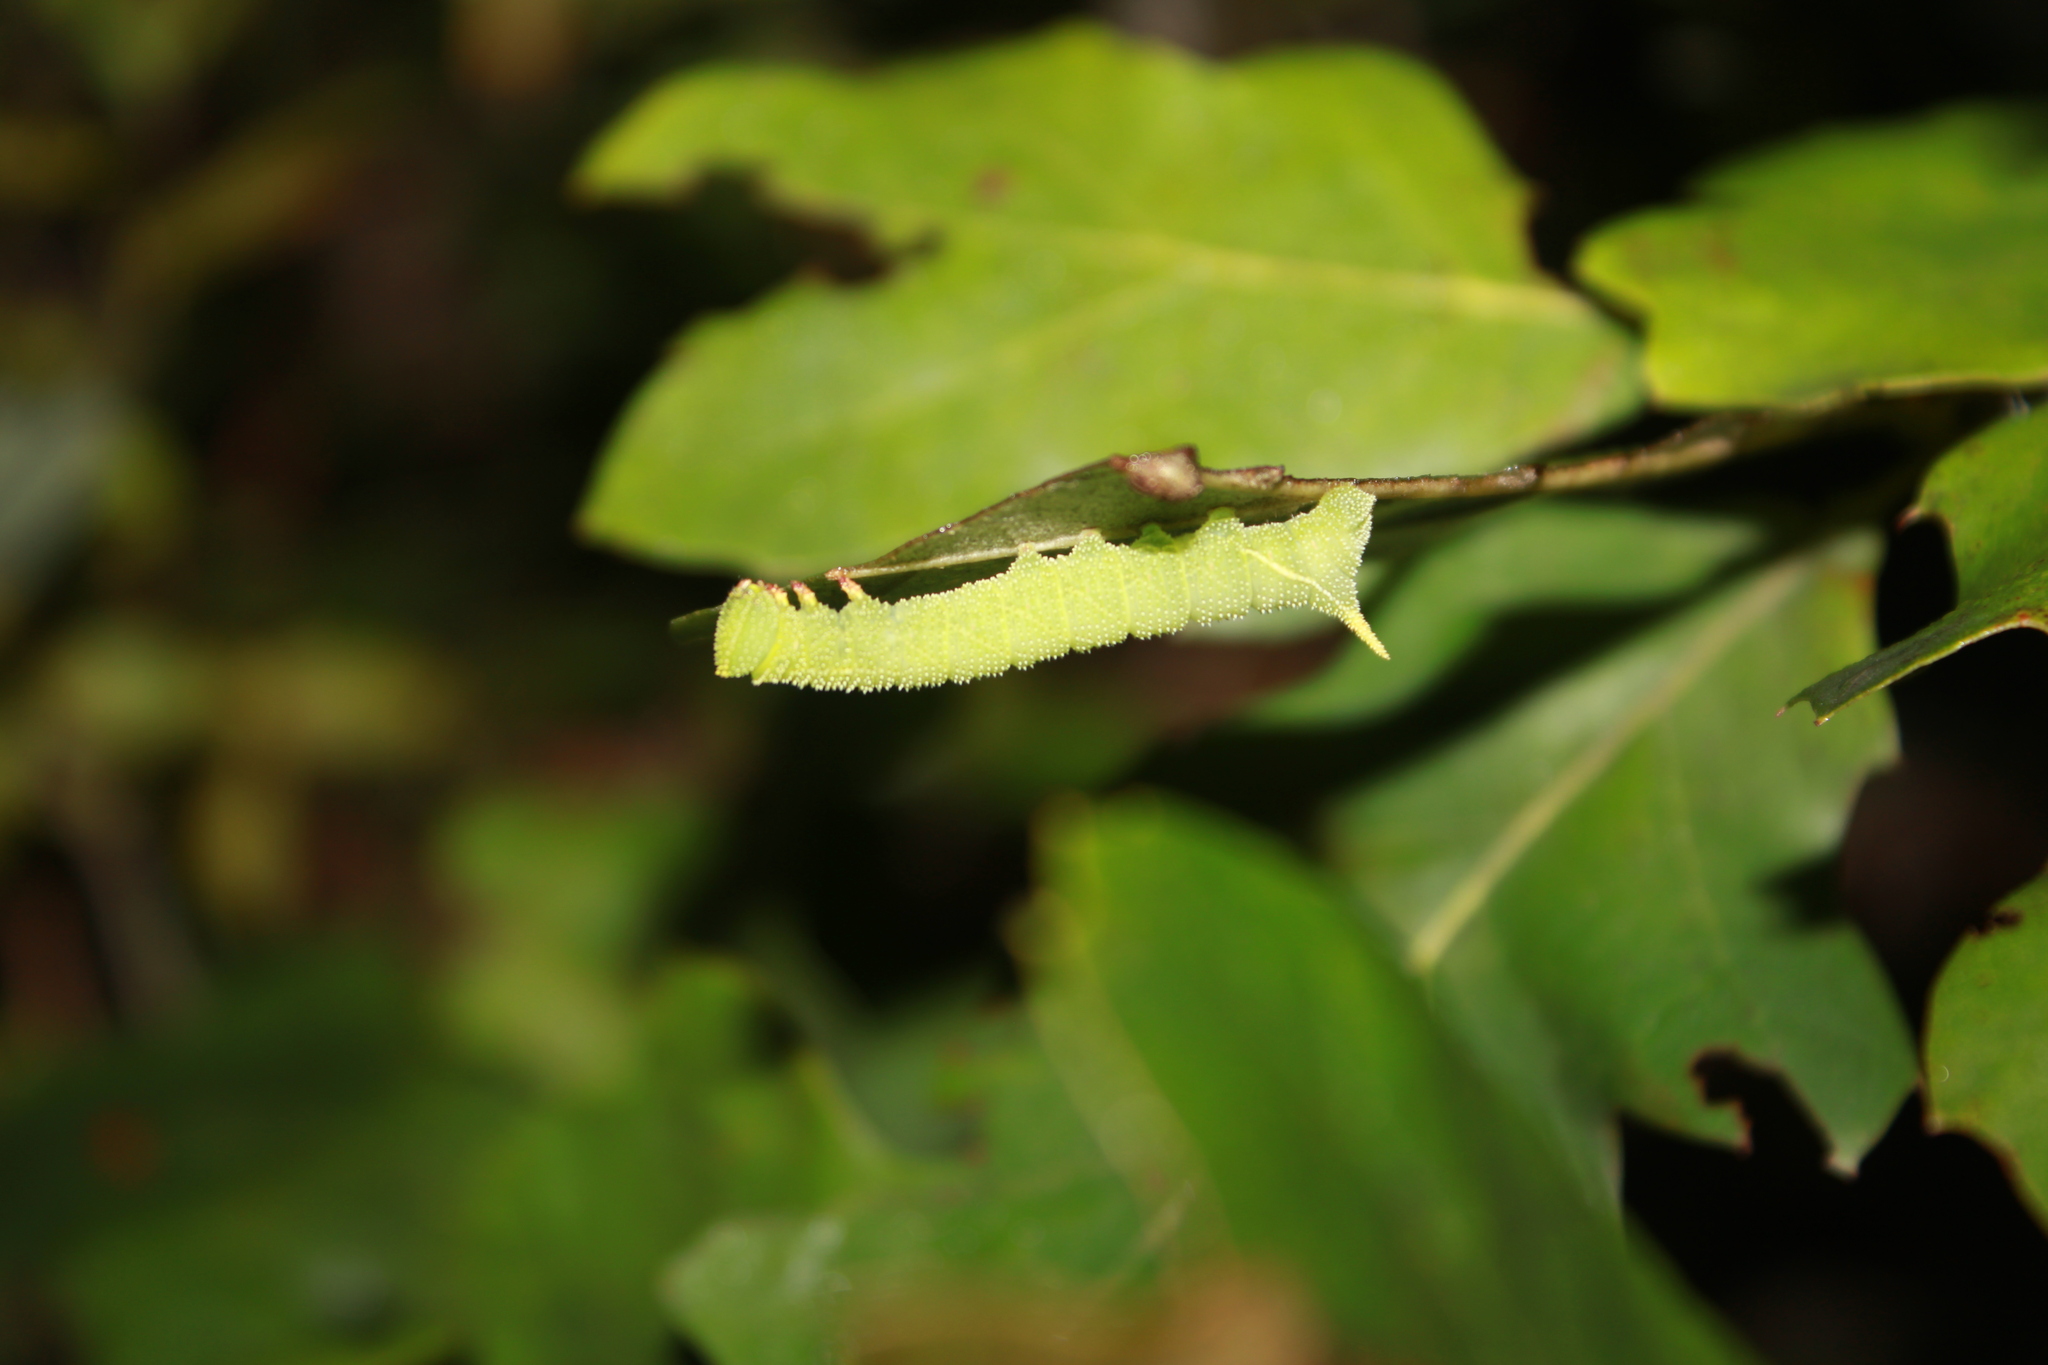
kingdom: Animalia
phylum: Arthropoda
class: Insecta
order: Lepidoptera
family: Sphingidae
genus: Paonias
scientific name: Paonias excaecata
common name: Blind-eyed sphinx
